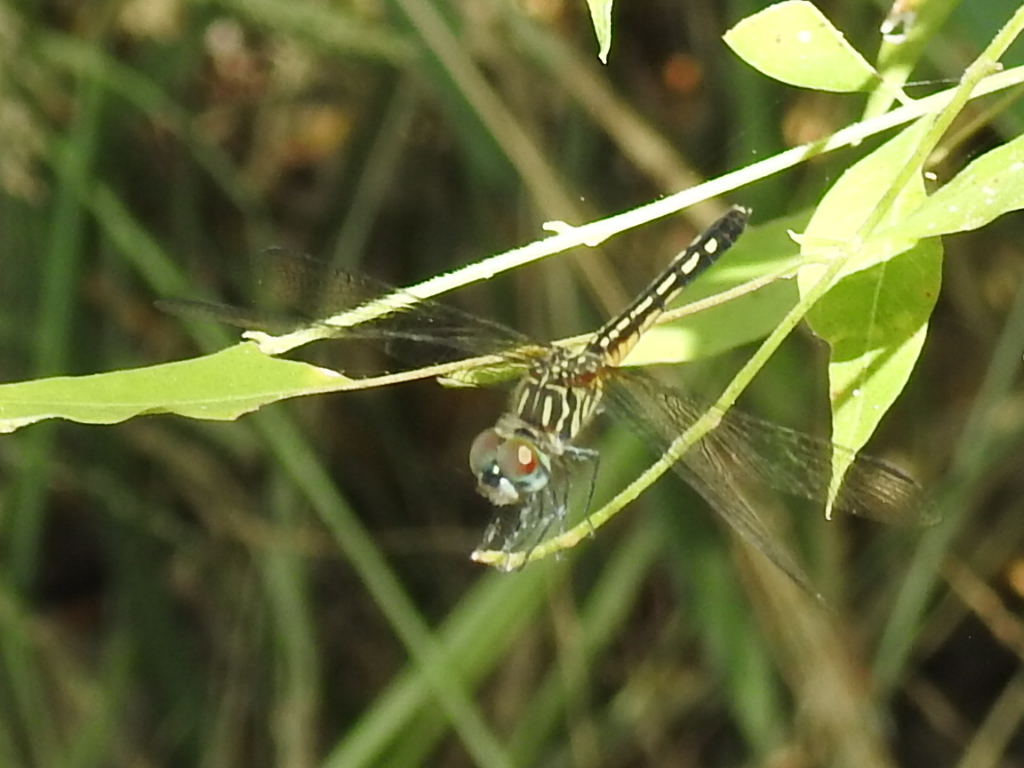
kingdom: Animalia
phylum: Arthropoda
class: Insecta
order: Odonata
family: Libellulidae
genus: Pachydiplax
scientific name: Pachydiplax longipennis
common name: Blue dasher
